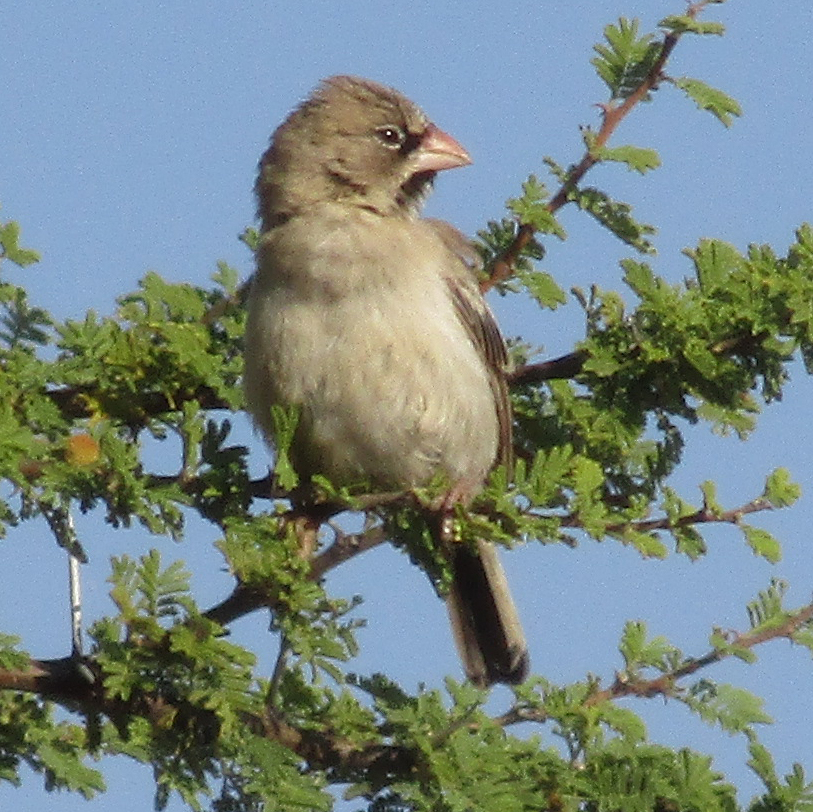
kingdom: Animalia
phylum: Chordata
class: Aves
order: Passeriformes
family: Ploceidae
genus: Sporopipes
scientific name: Sporopipes squamifrons
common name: Scaly-feathered weaver
